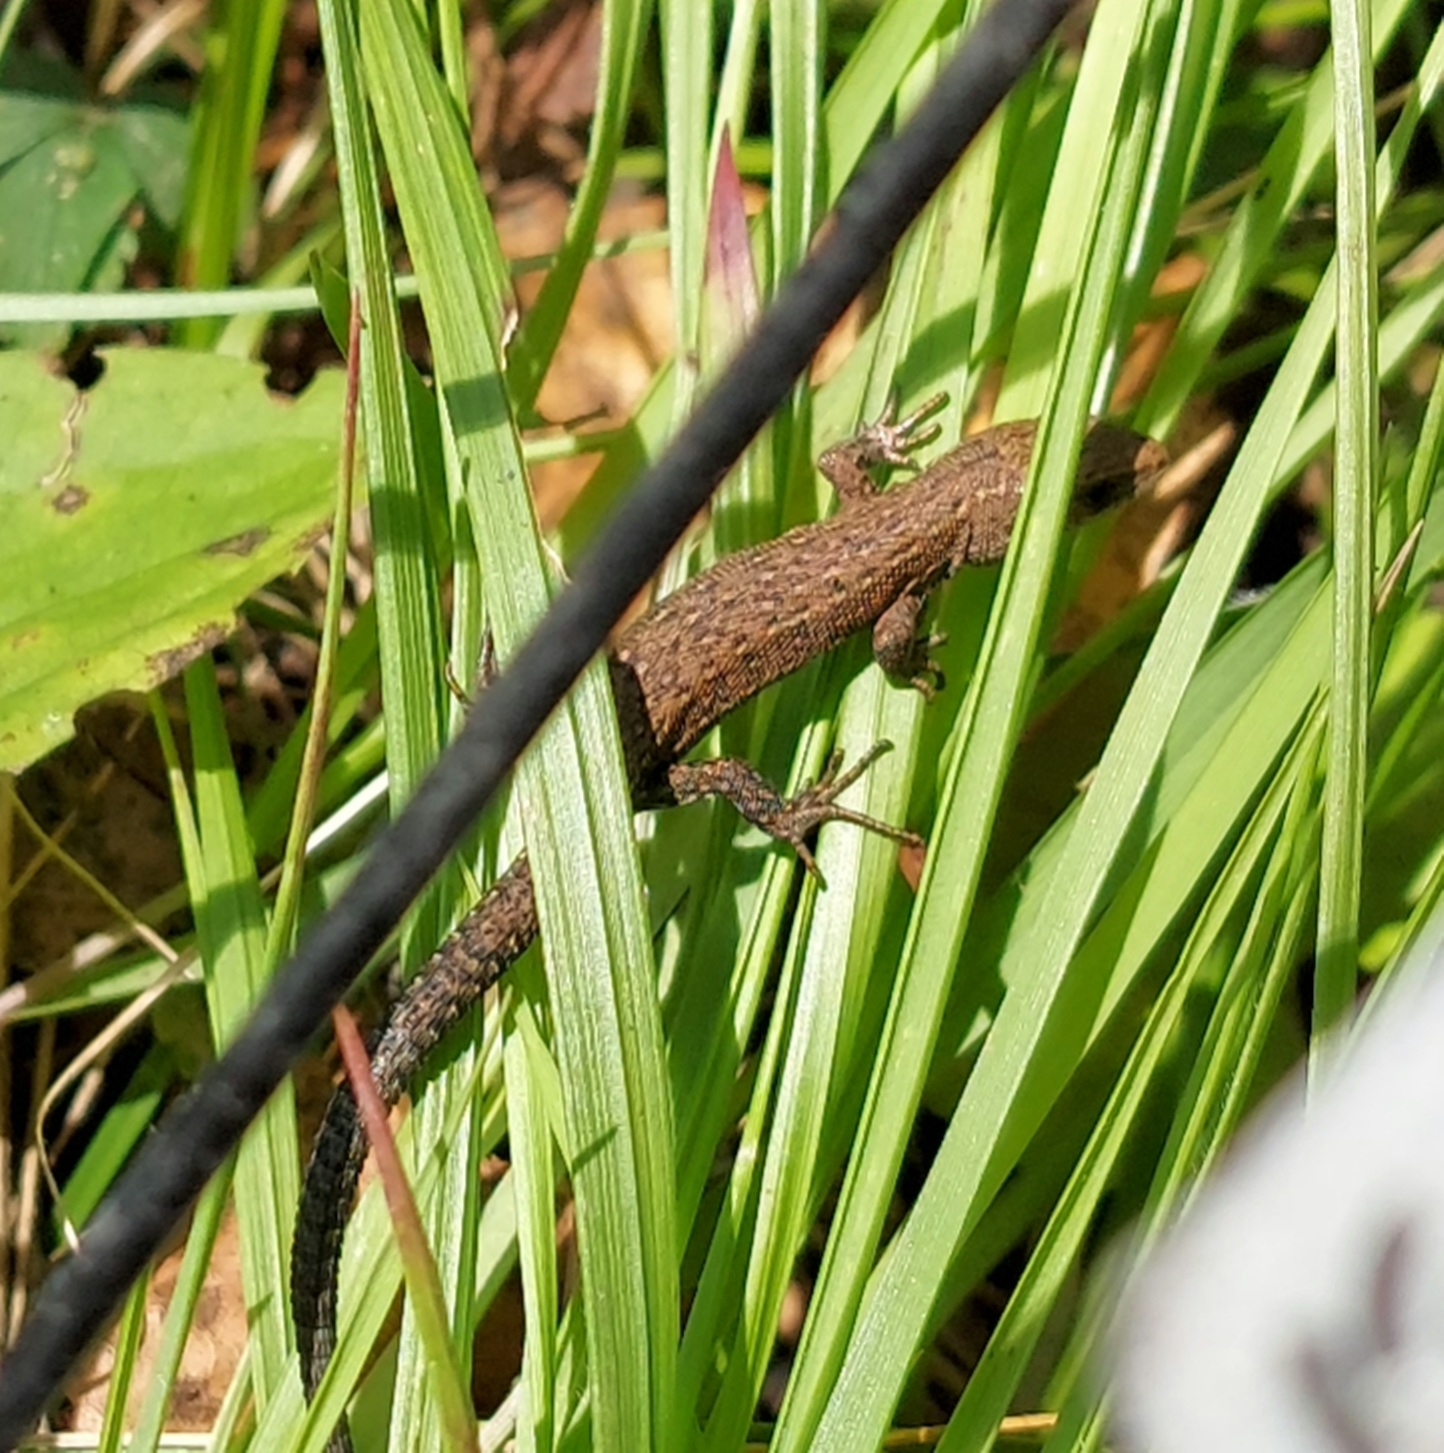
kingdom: Animalia
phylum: Chordata
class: Squamata
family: Lacertidae
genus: Zootoca
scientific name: Zootoca vivipara
